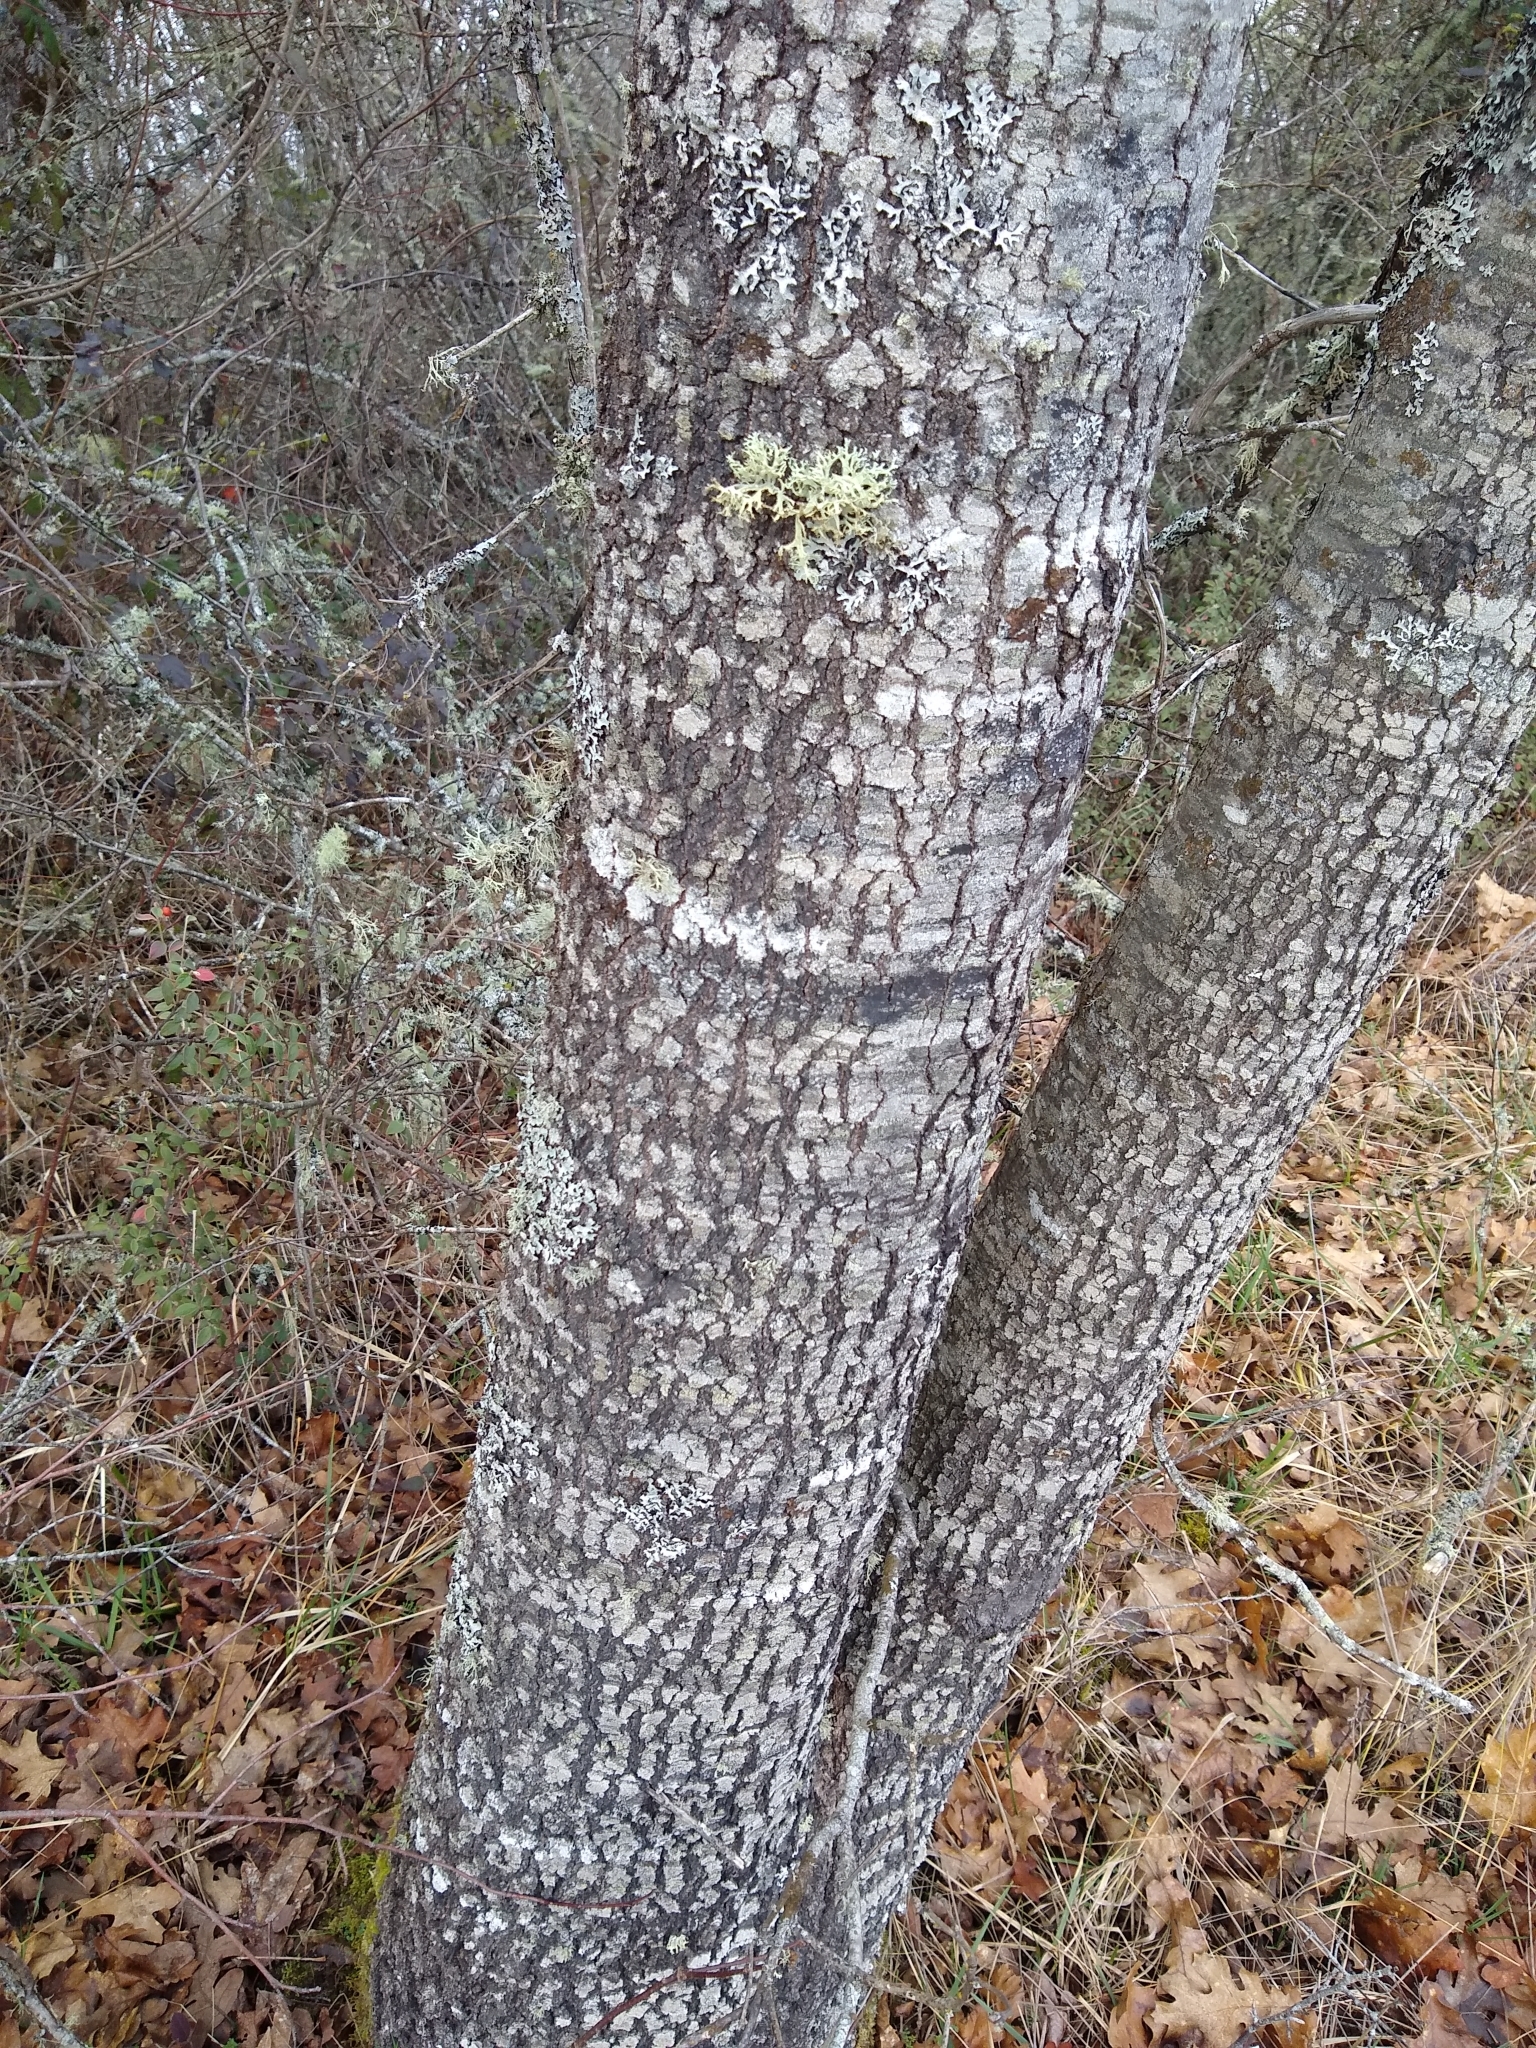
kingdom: Plantae
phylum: Tracheophyta
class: Magnoliopsida
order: Fagales
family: Fagaceae
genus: Quercus
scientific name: Quercus kelloggii
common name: California black oak
